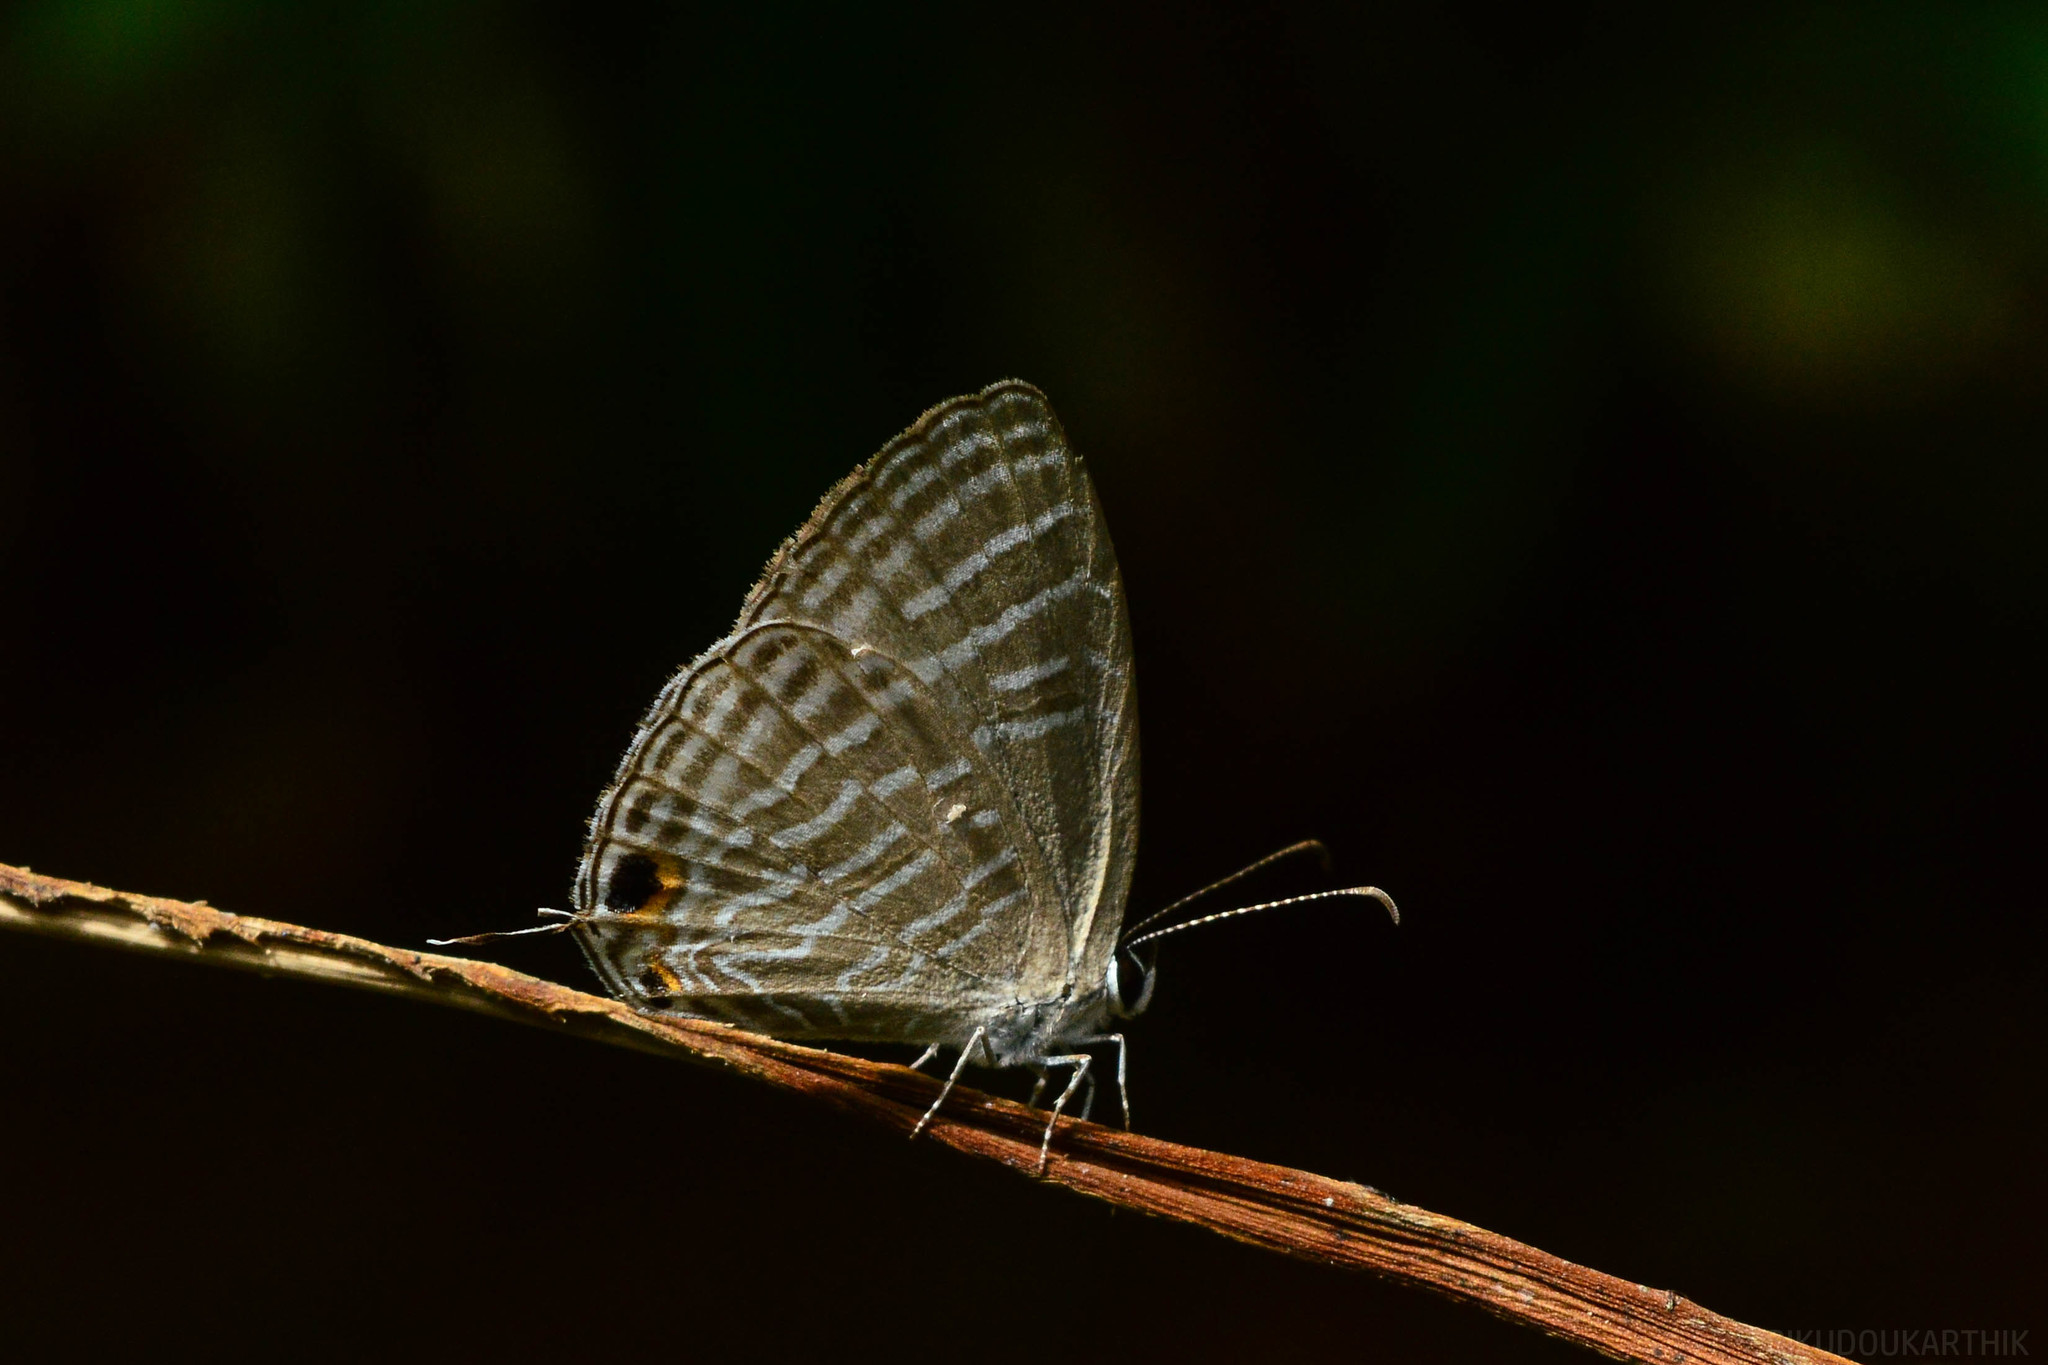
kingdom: Animalia
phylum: Arthropoda
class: Insecta
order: Lepidoptera
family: Lycaenidae
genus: Jamides
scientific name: Jamides celeno
